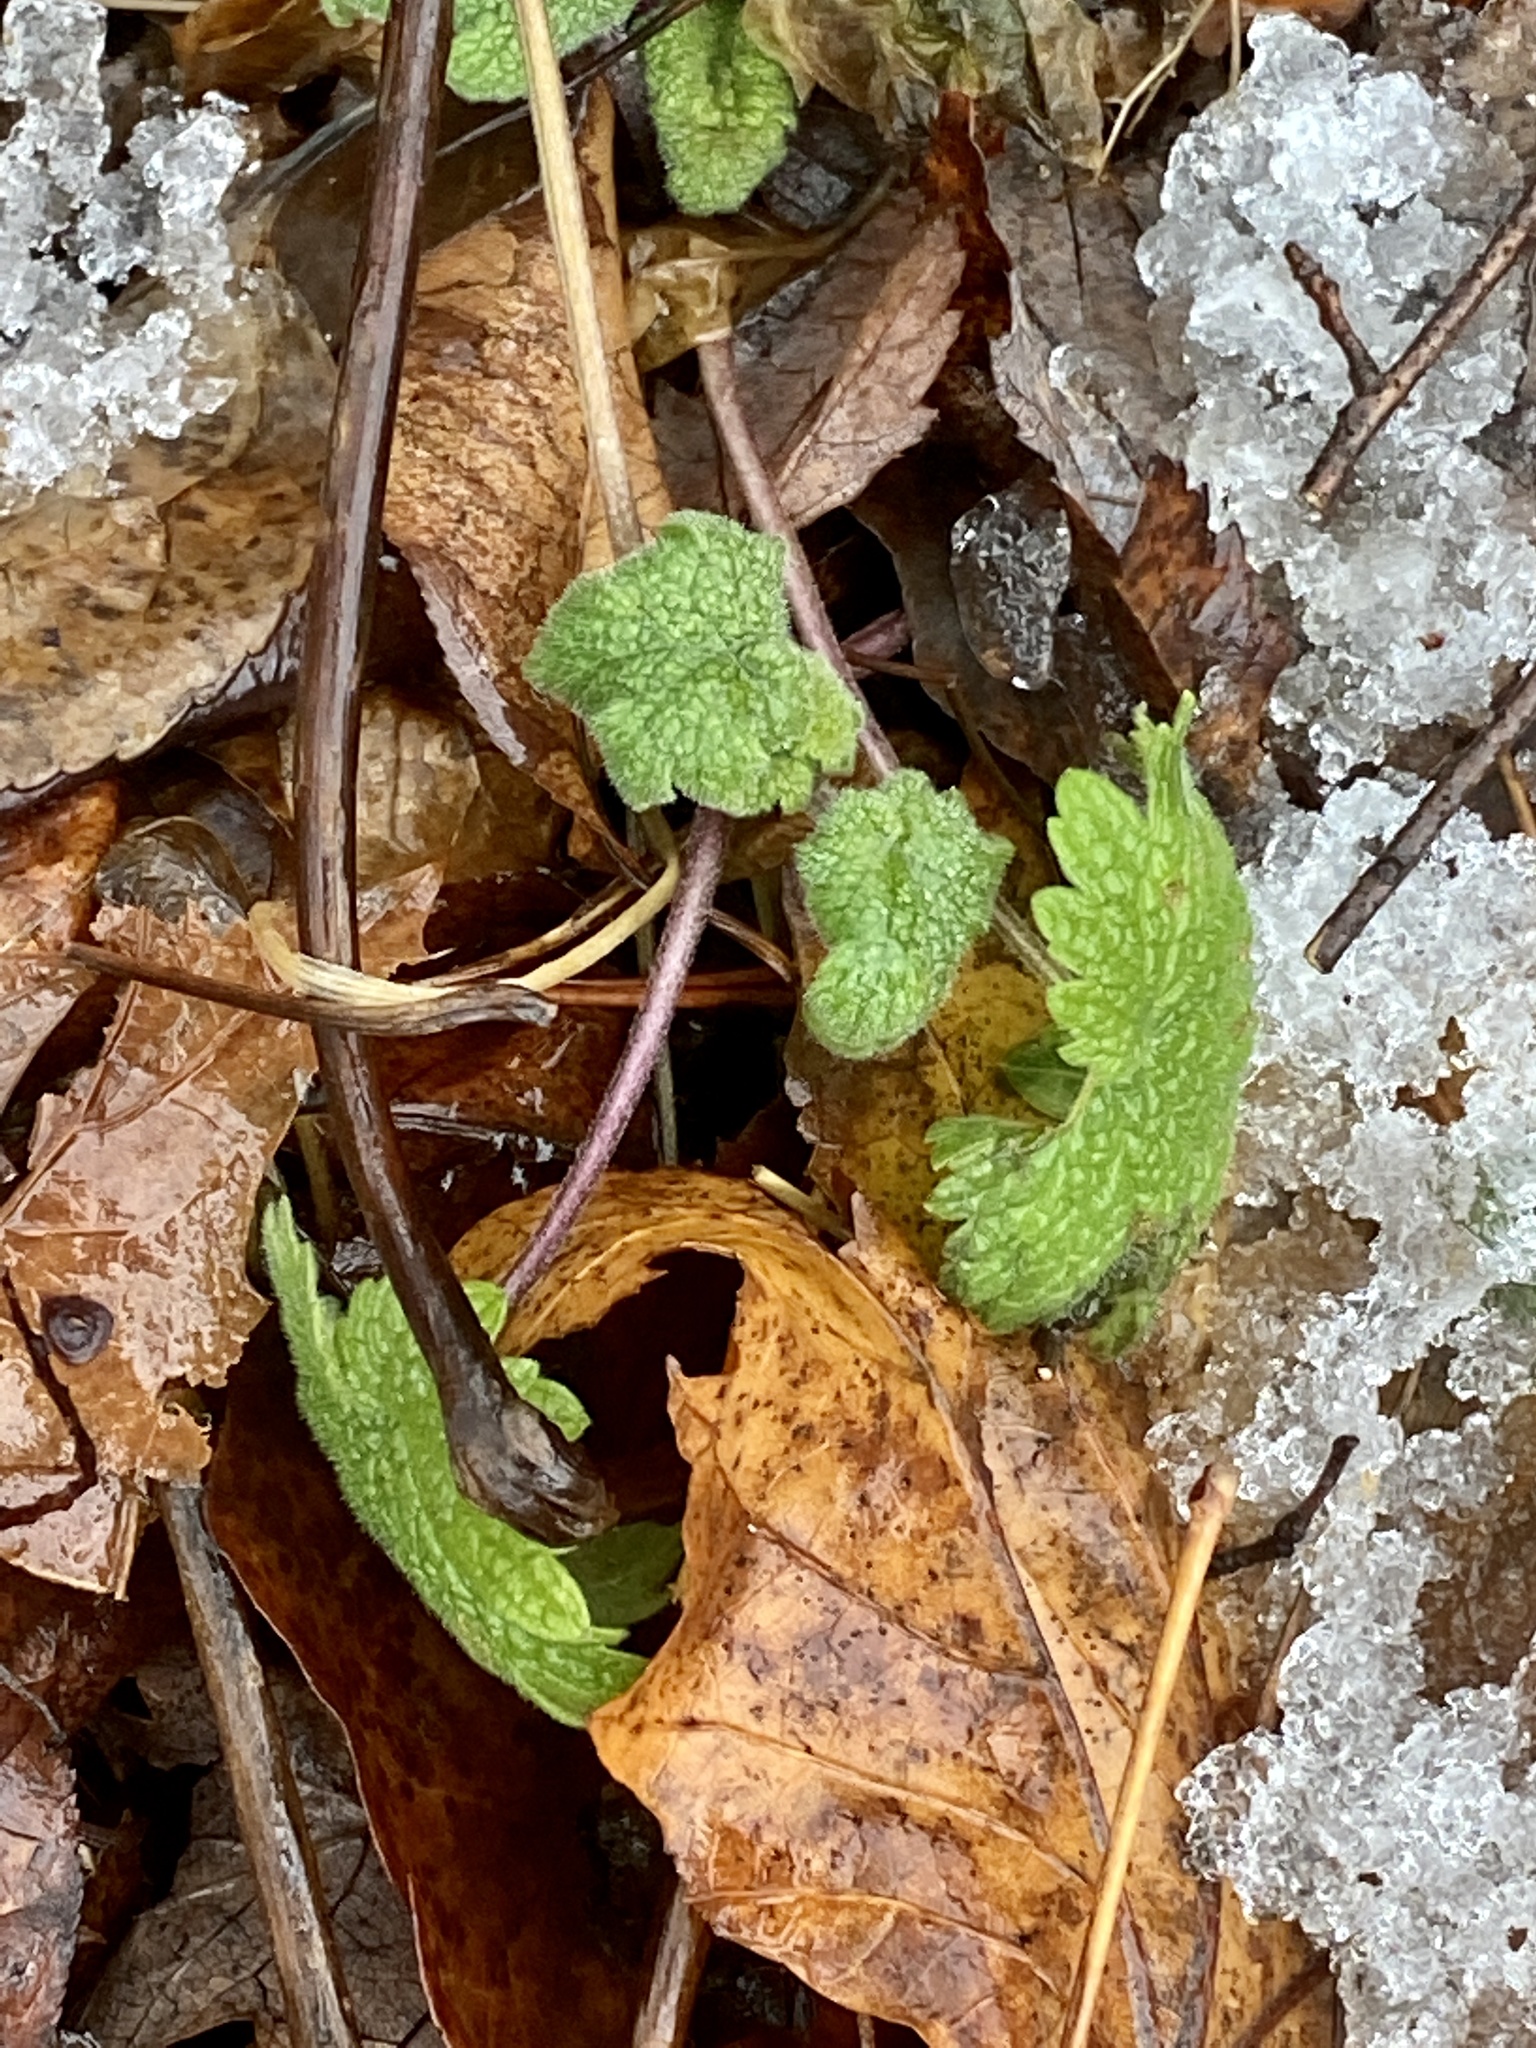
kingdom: Plantae
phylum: Tracheophyta
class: Magnoliopsida
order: Lamiales
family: Lamiaceae
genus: Leonurus
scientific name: Leonurus cardiaca
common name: Motherwort
